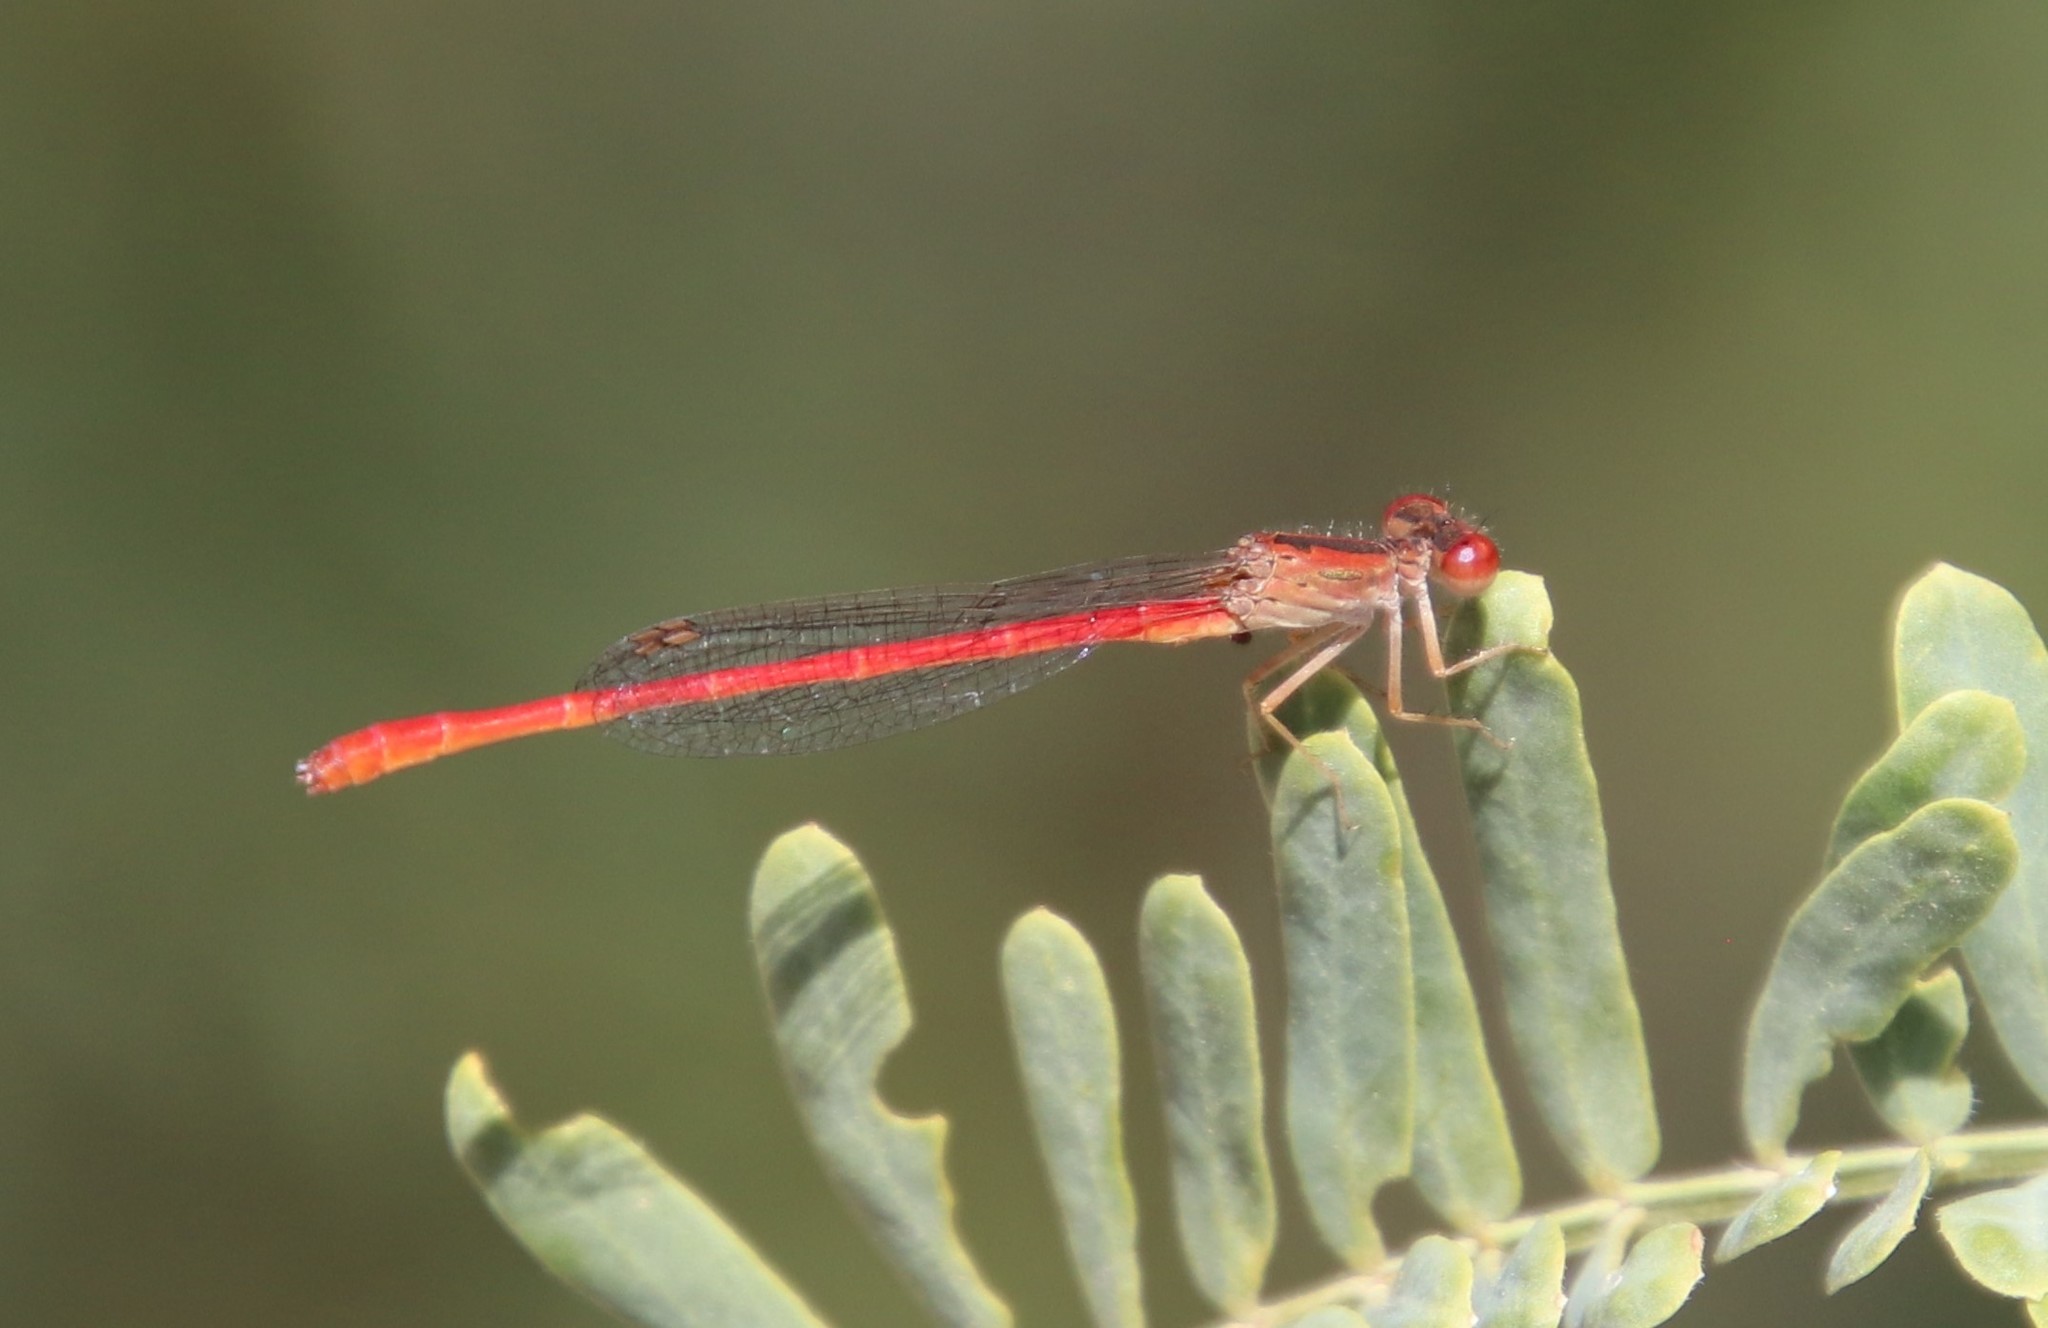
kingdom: Animalia
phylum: Arthropoda
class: Insecta
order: Odonata
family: Coenagrionidae
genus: Telebasis
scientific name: Telebasis salva
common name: Desert firetail
